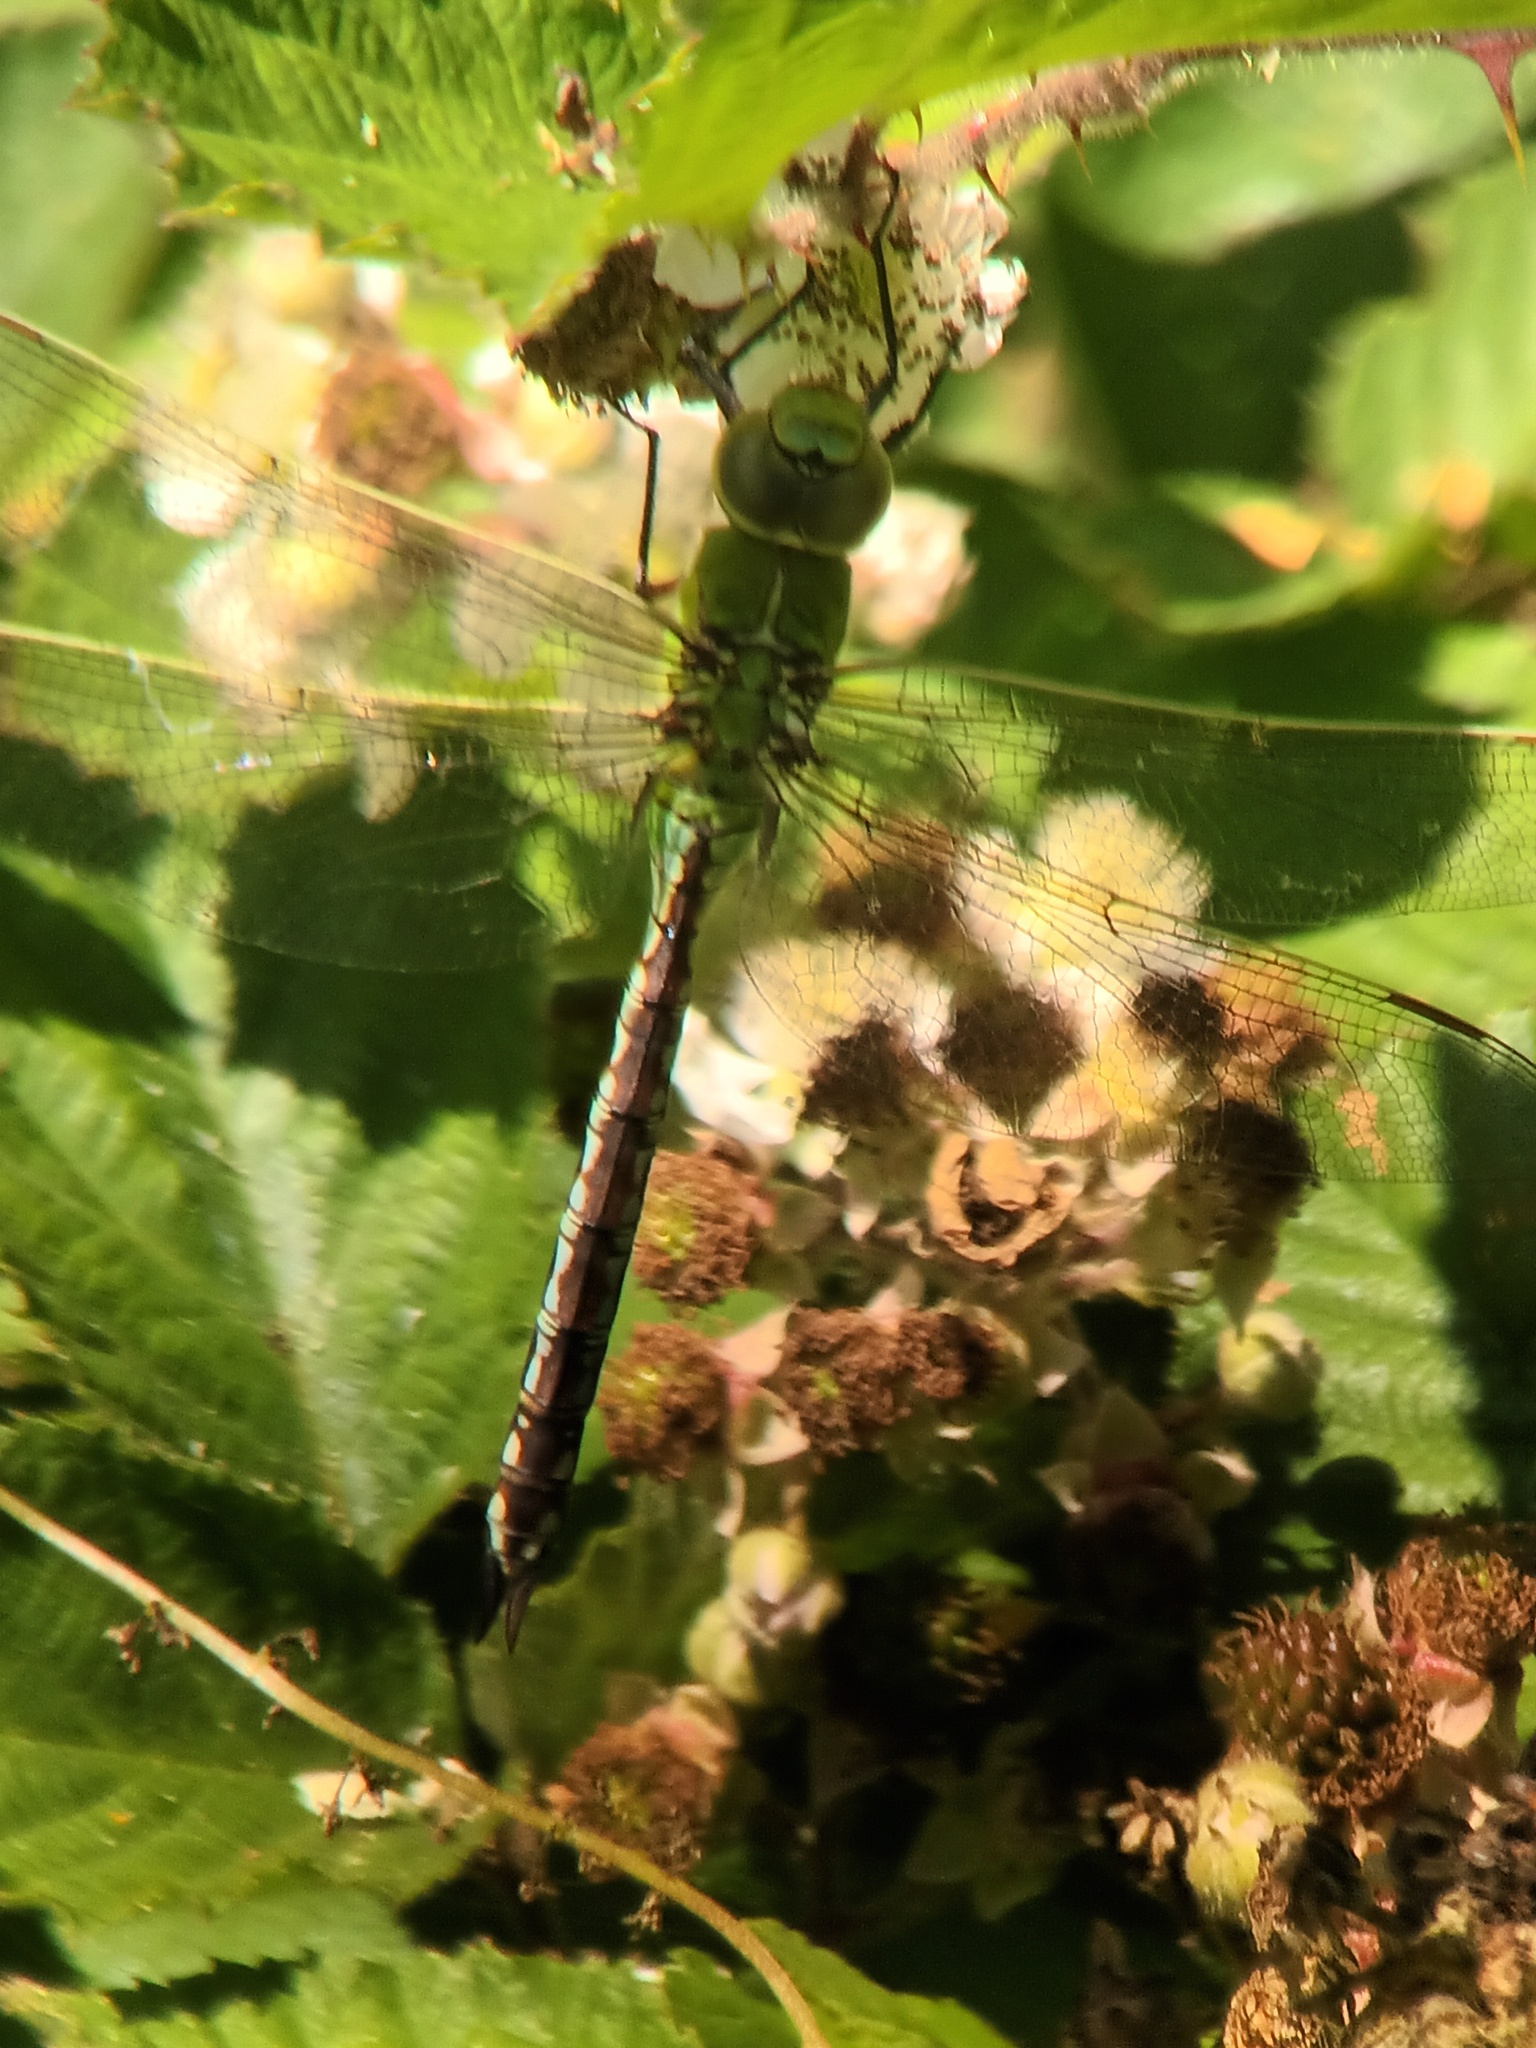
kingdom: Animalia
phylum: Arthropoda
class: Insecta
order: Odonata
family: Aeshnidae
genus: Anax
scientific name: Anax imperator
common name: Emperor dragonfly
